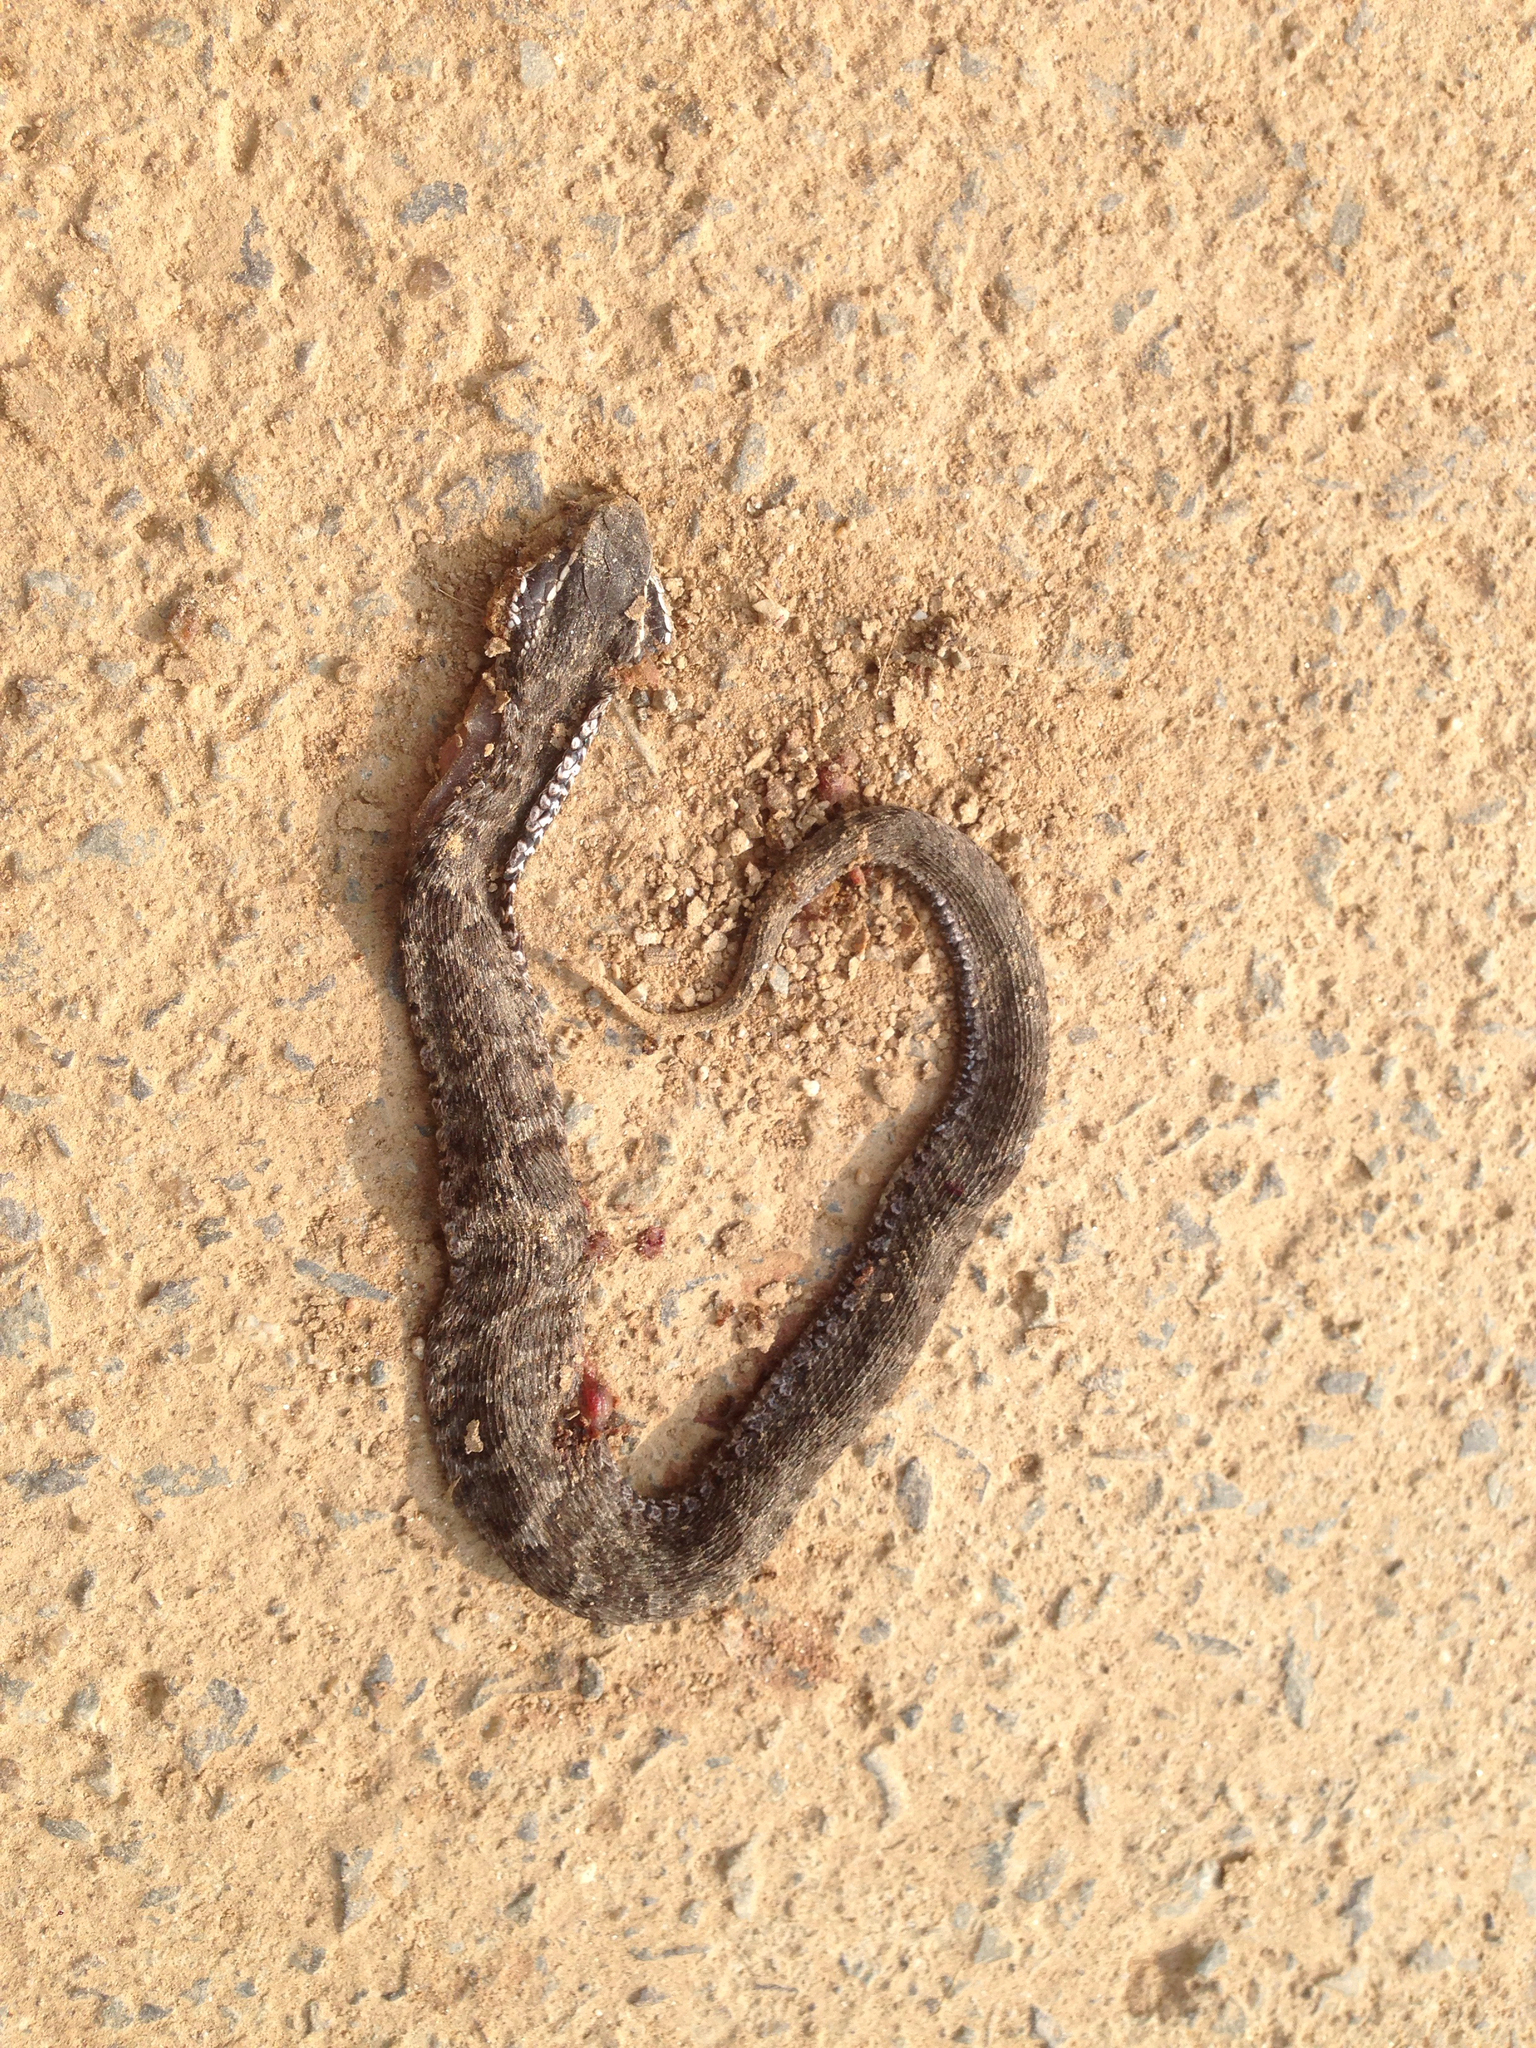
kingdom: Animalia
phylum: Chordata
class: Squamata
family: Viperidae
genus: Gloydius
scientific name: Gloydius brevicauda
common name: Short-tailed mamushi
